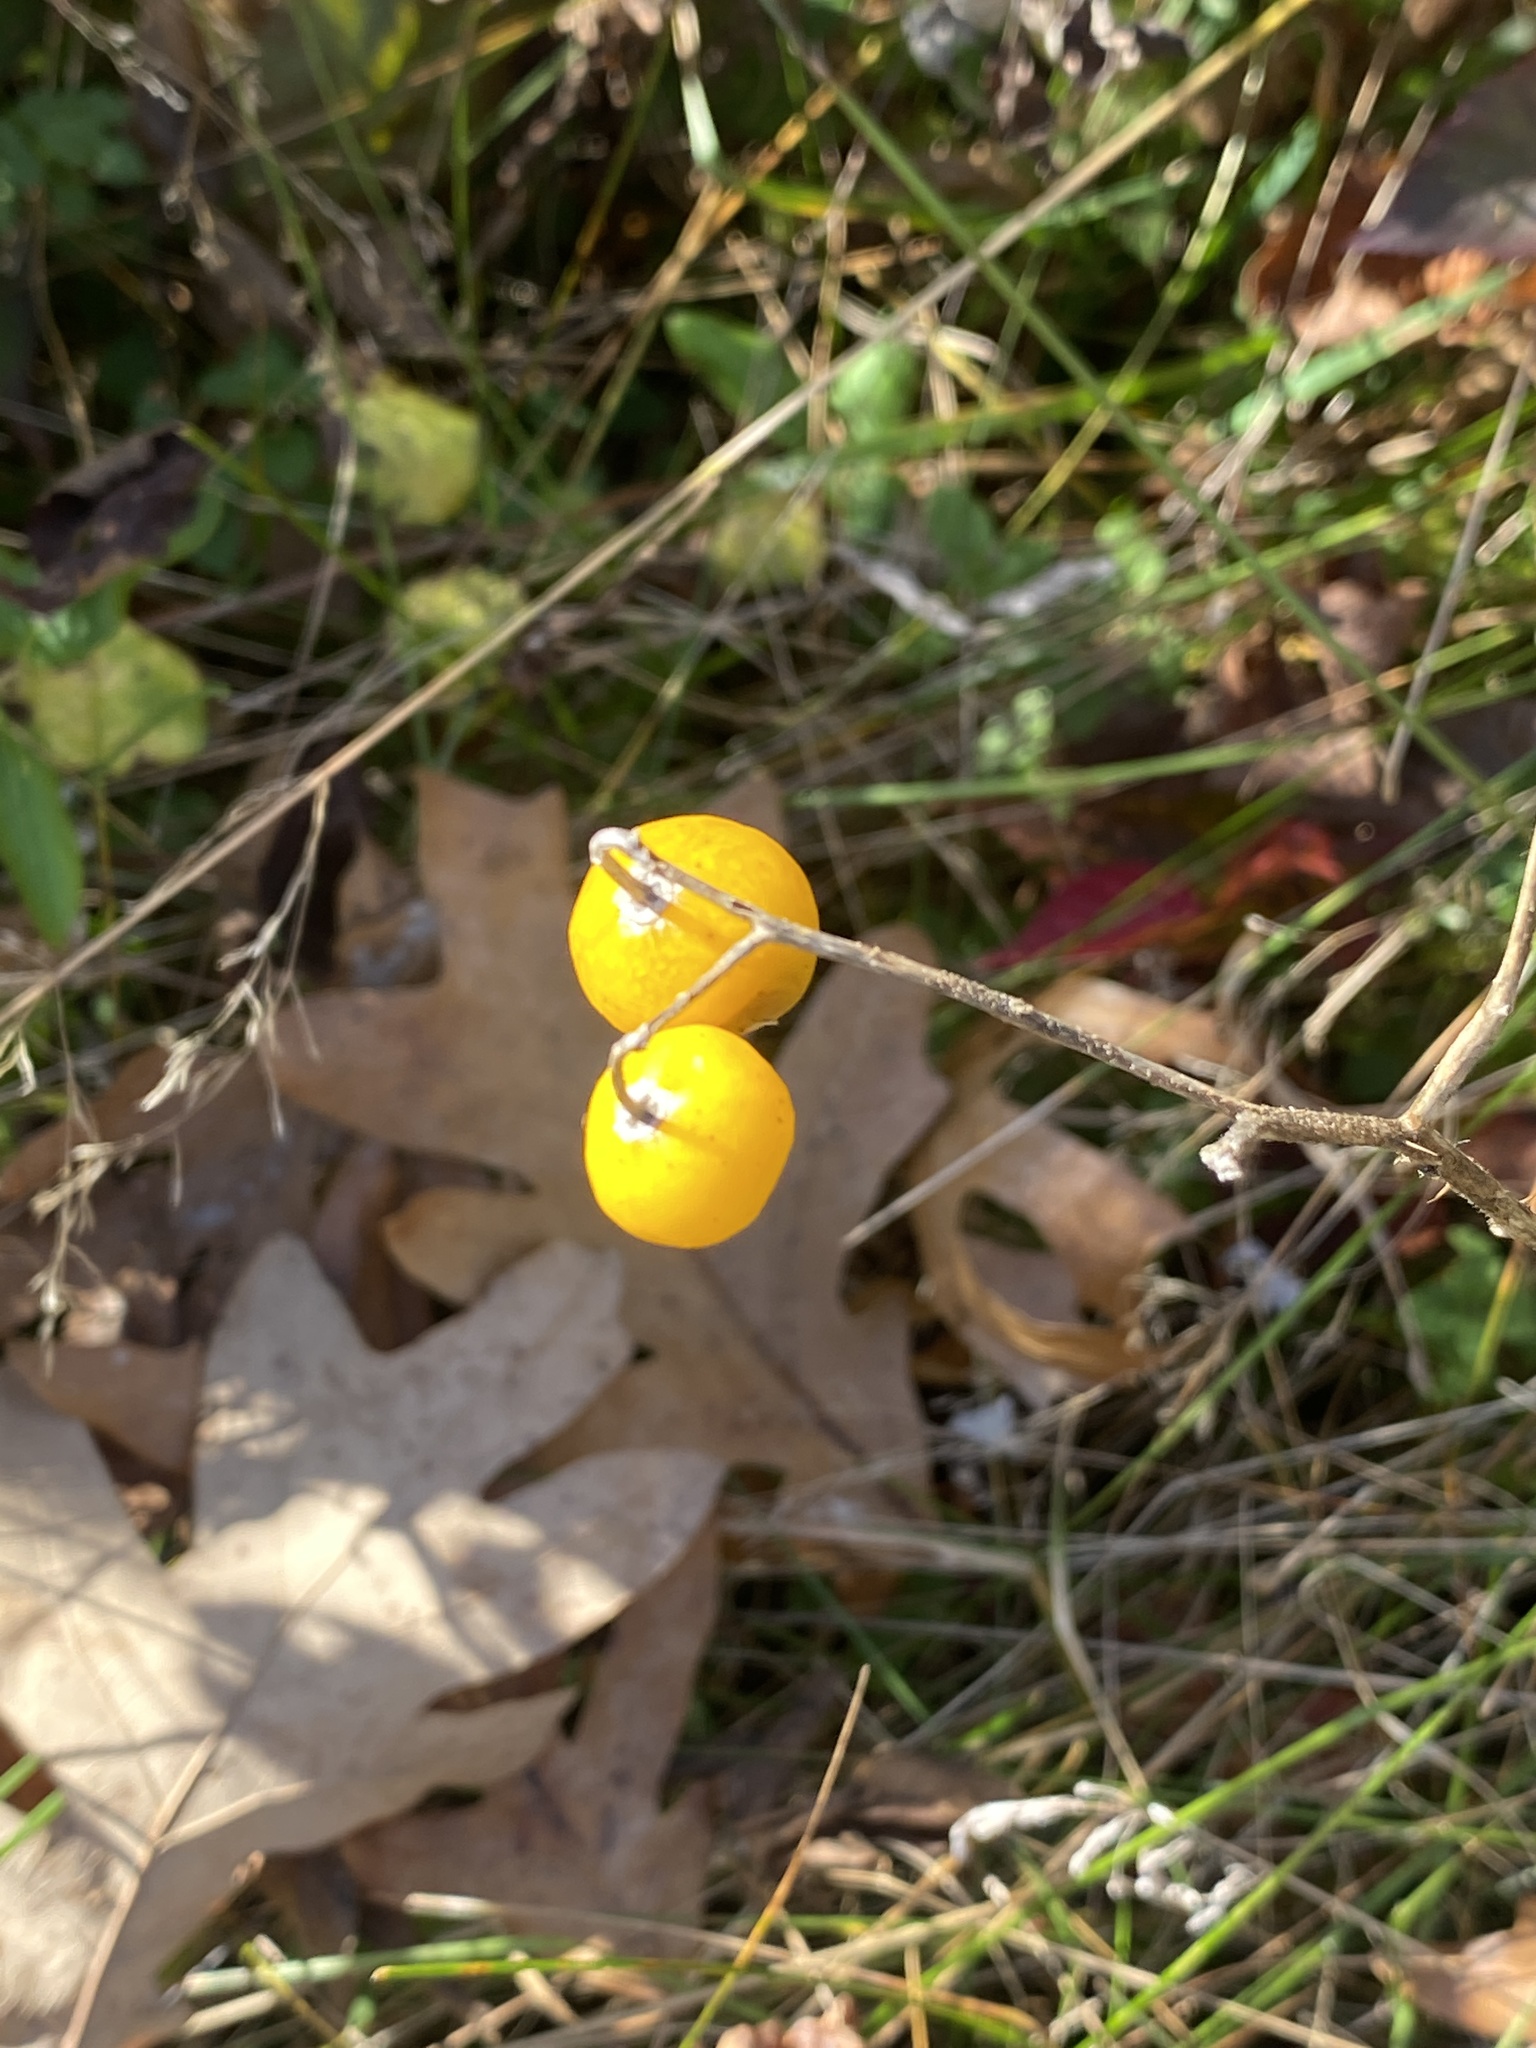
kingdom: Plantae
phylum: Tracheophyta
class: Magnoliopsida
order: Solanales
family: Solanaceae
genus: Solanum
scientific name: Solanum carolinense
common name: Horse-nettle
